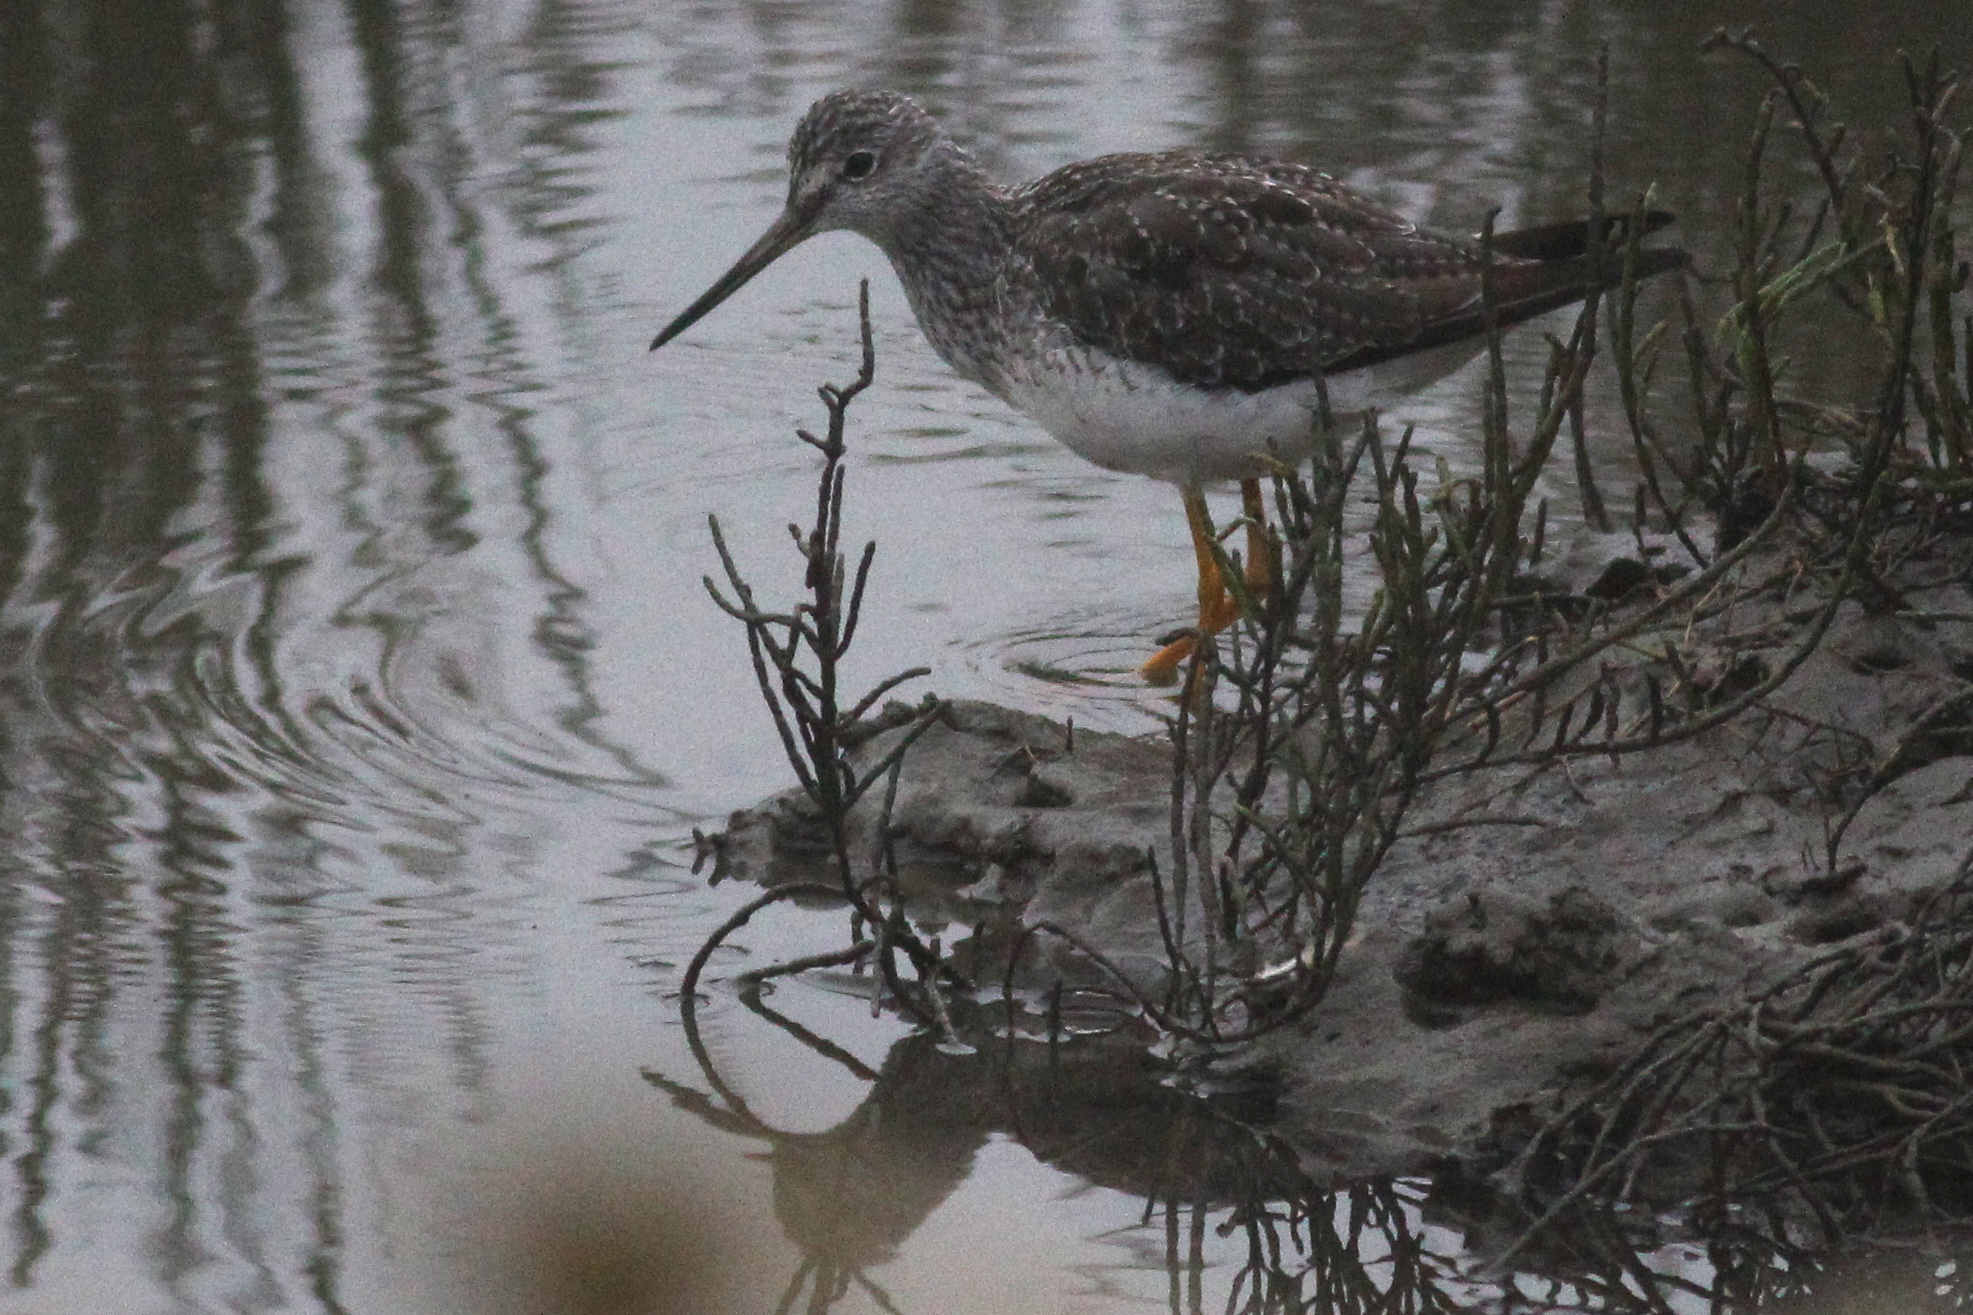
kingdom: Animalia
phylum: Chordata
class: Aves
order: Charadriiformes
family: Scolopacidae
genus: Tringa
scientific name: Tringa melanoleuca
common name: Greater yellowlegs
